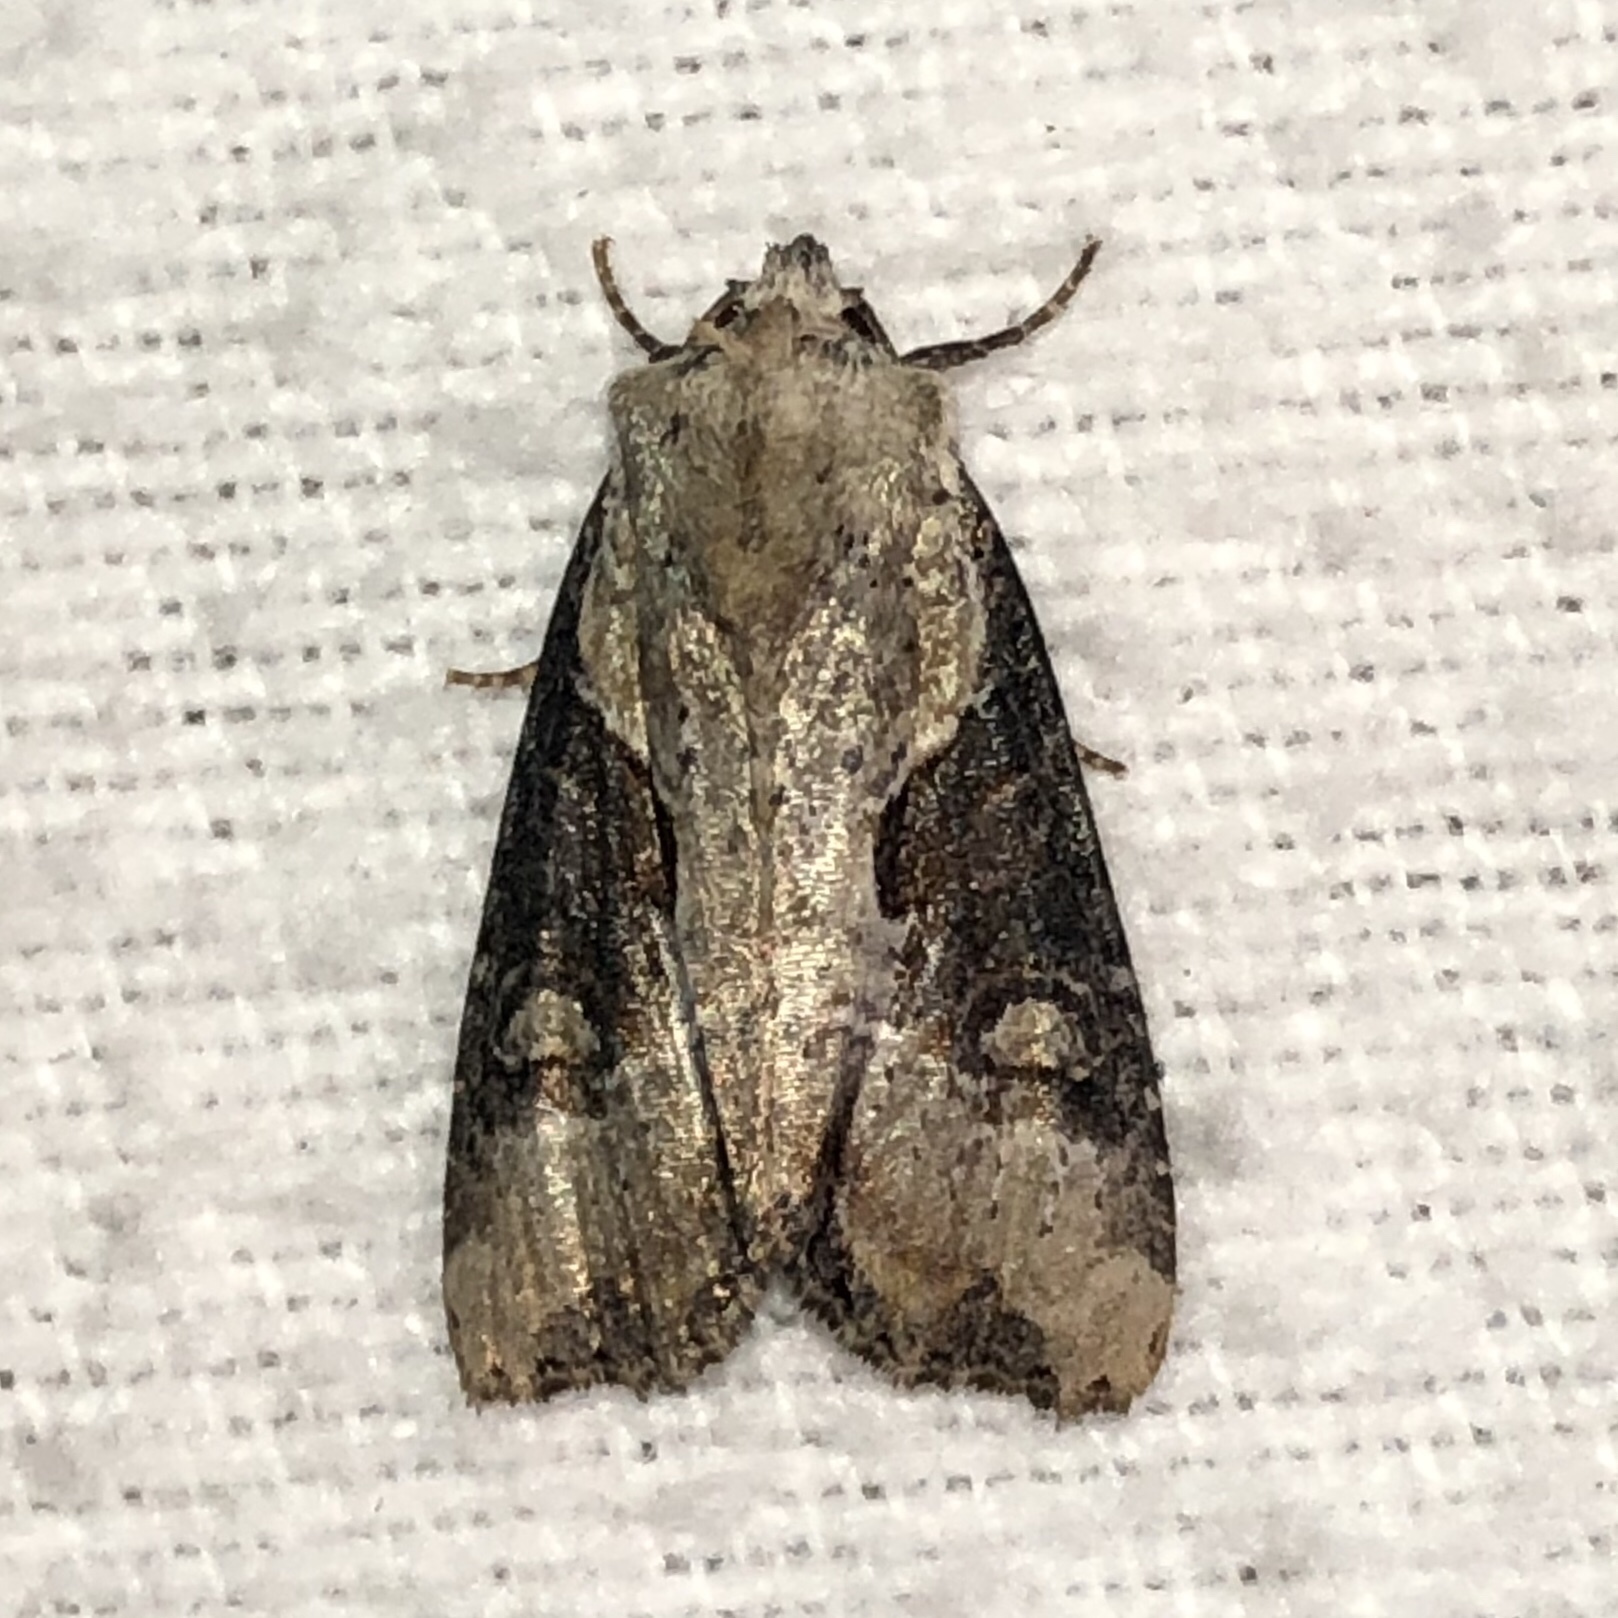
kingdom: Animalia
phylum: Arthropoda
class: Insecta
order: Lepidoptera
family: Noctuidae
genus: Lateroligia
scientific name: Lateroligia ophiogramma
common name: Double lobed
